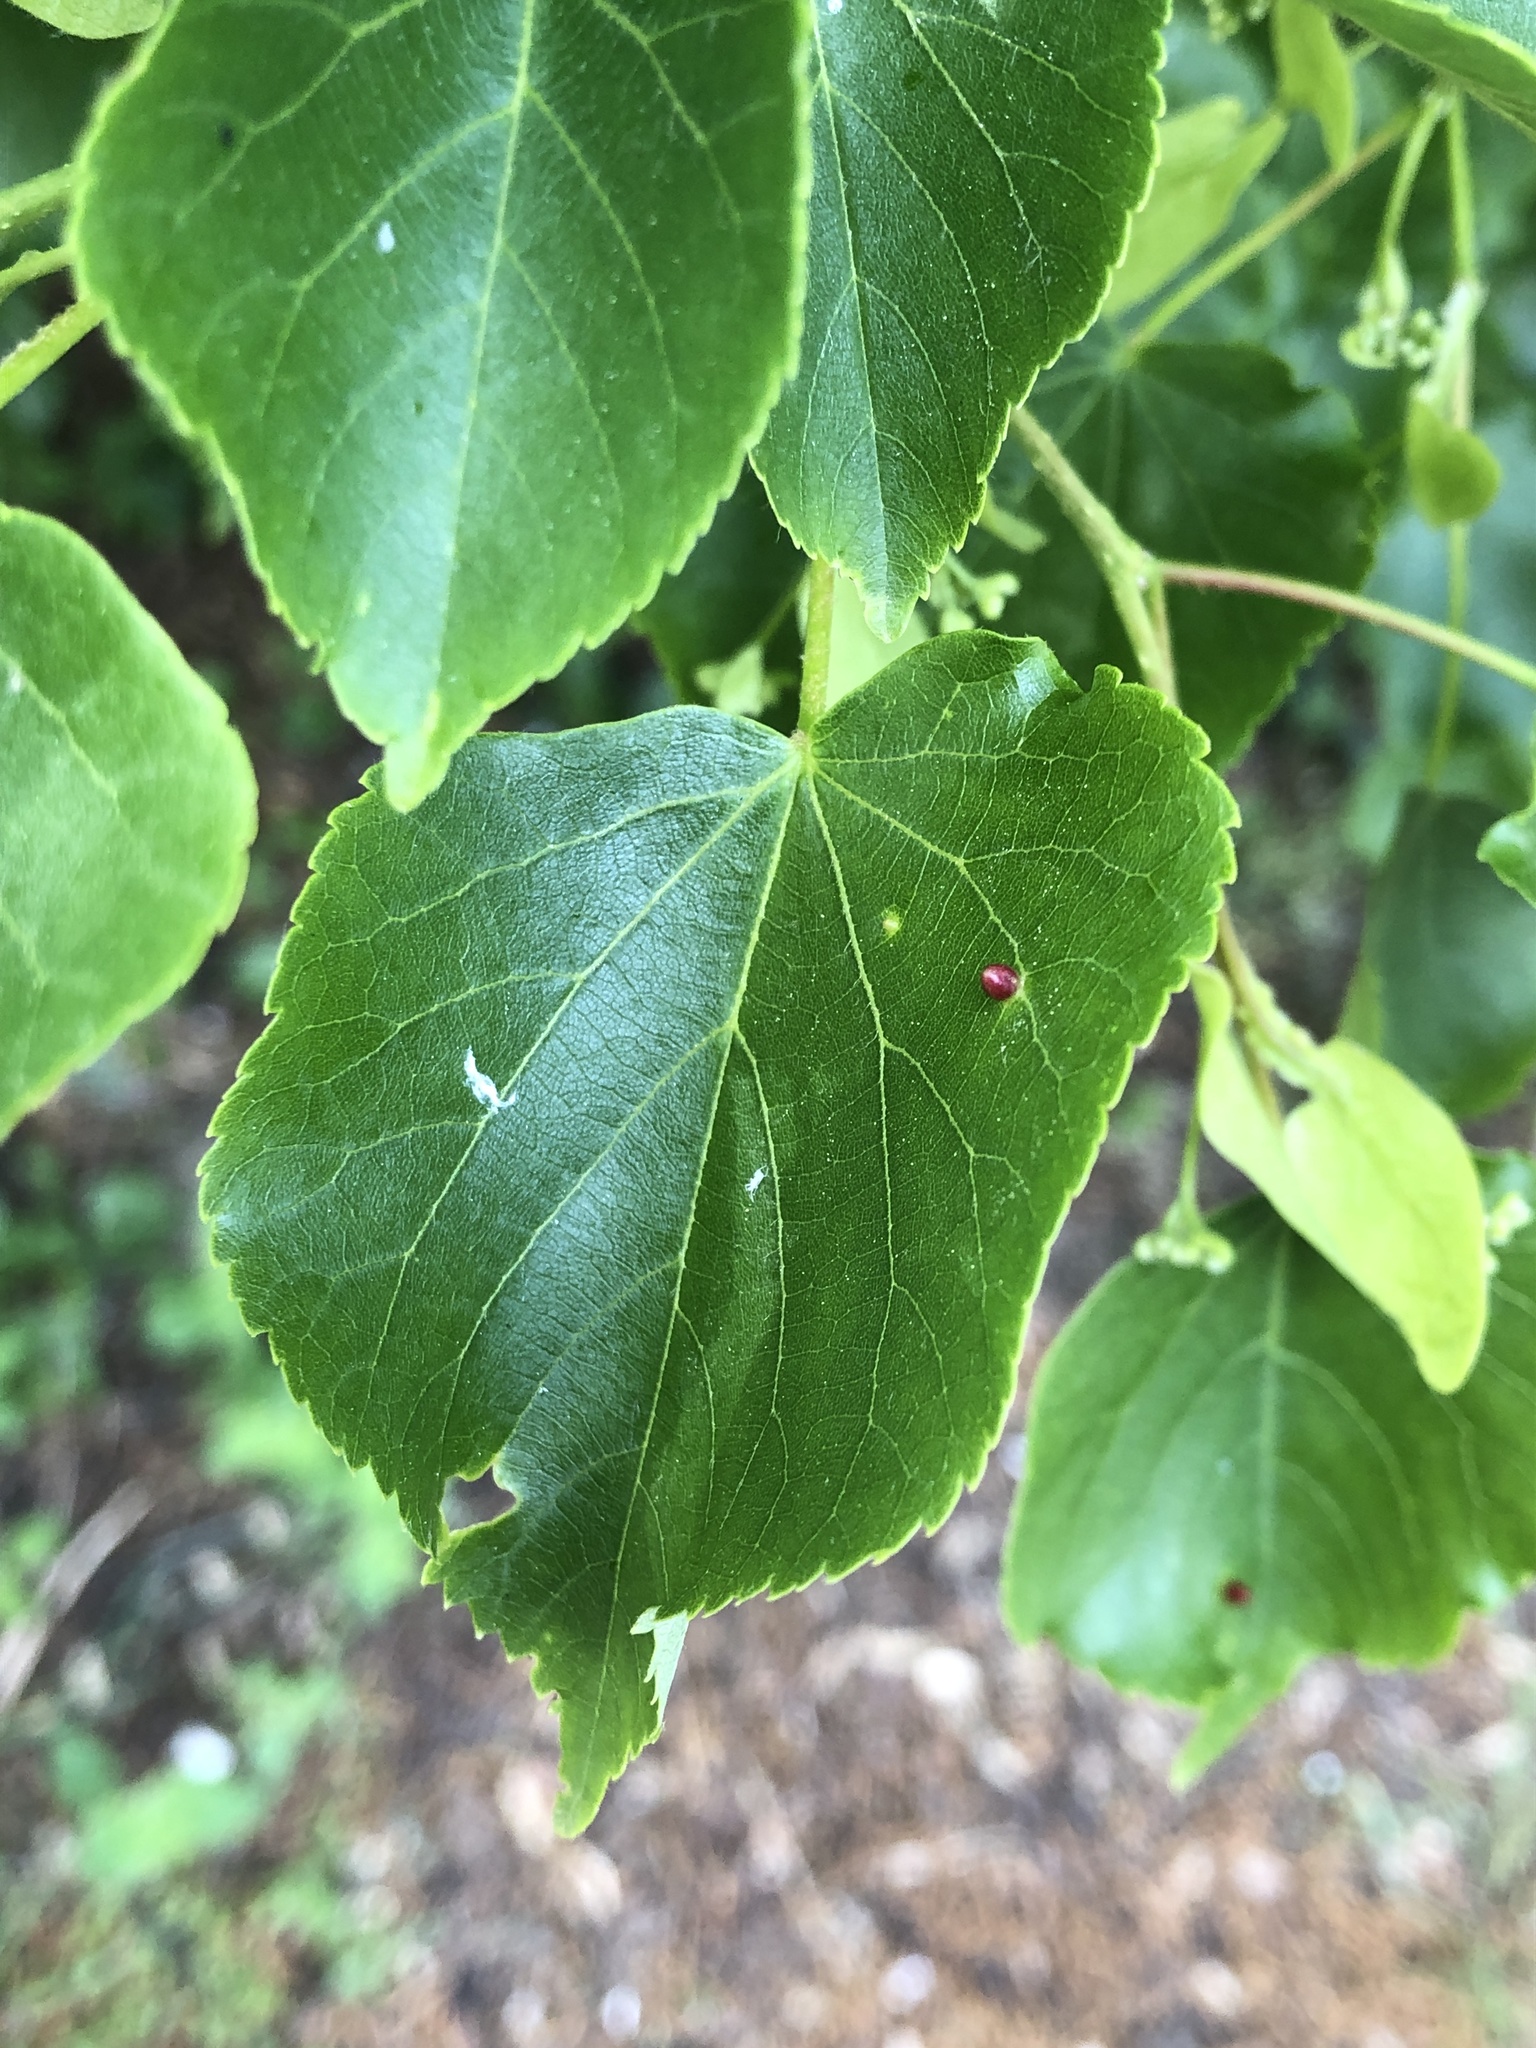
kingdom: Animalia
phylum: Arthropoda
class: Arachnida
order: Trombidiformes
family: Eriophyidae
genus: Eriophyes
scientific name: Eriophyes tiliae
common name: Red nail gall mite
